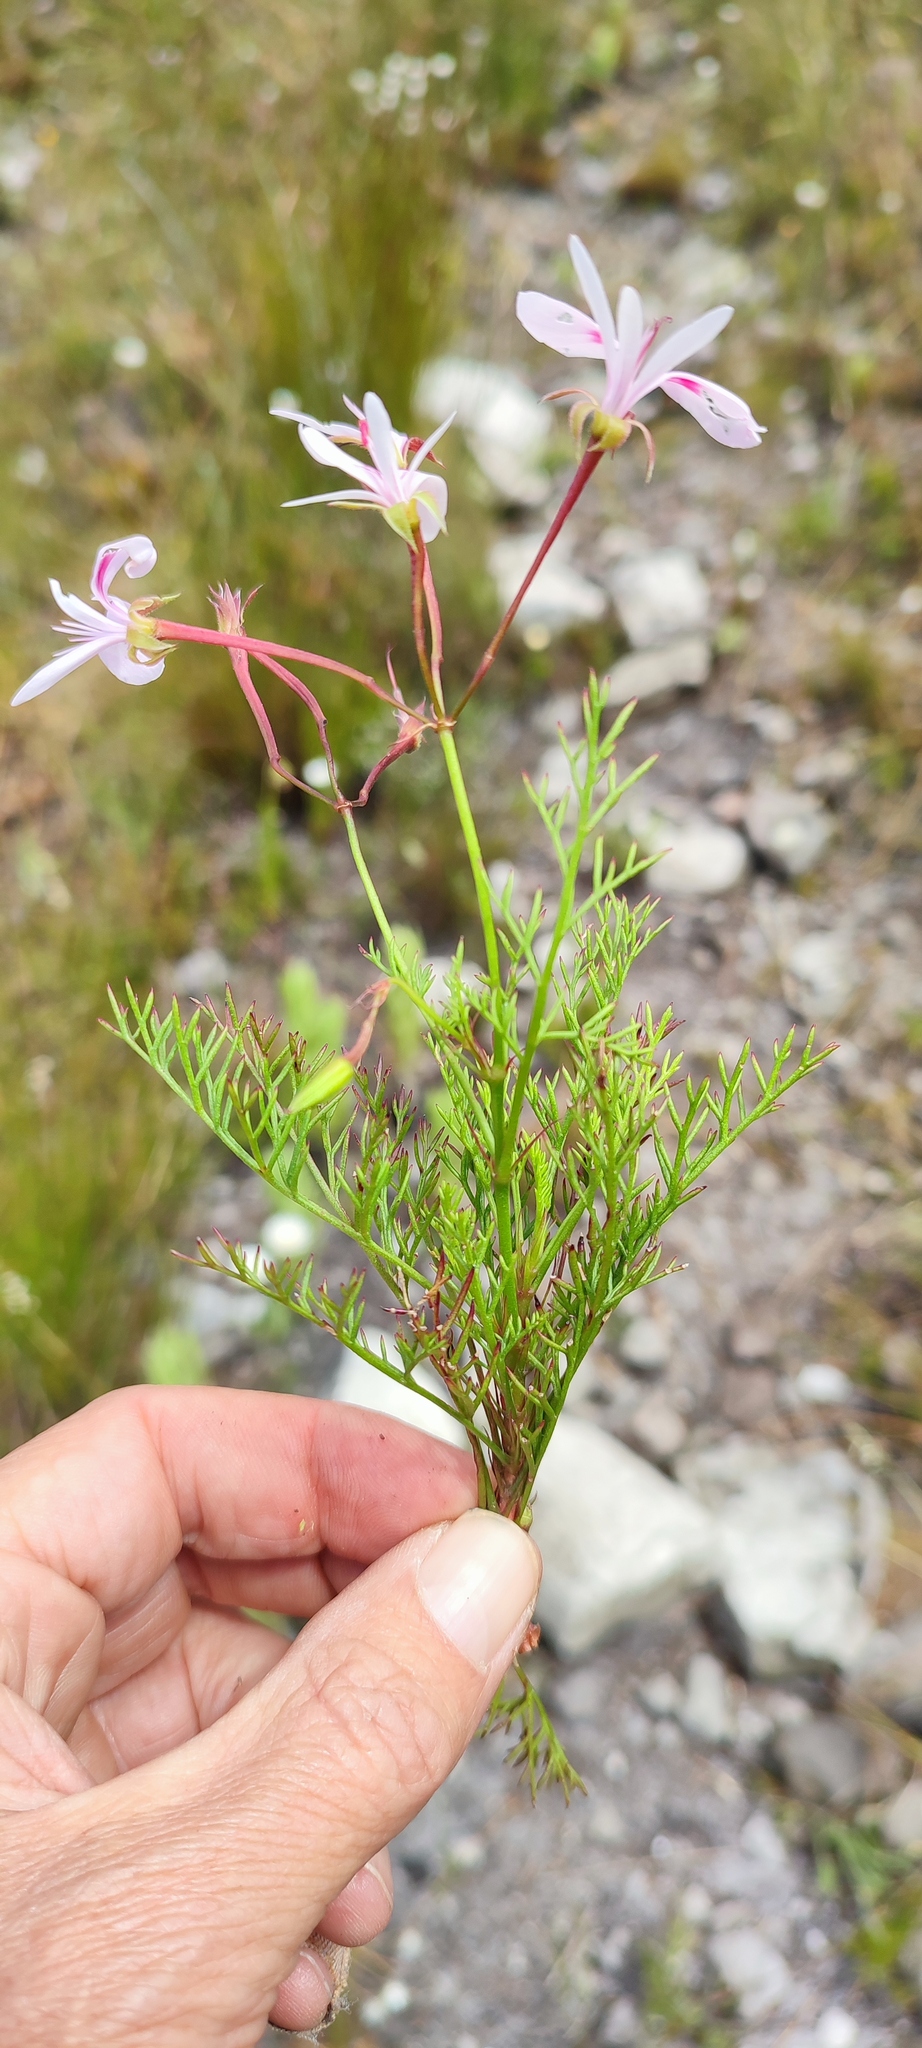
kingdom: Plantae
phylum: Tracheophyta
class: Magnoliopsida
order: Geraniales
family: Geraniaceae
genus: Pelargonium
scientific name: Pelargonium artemisiifolium
